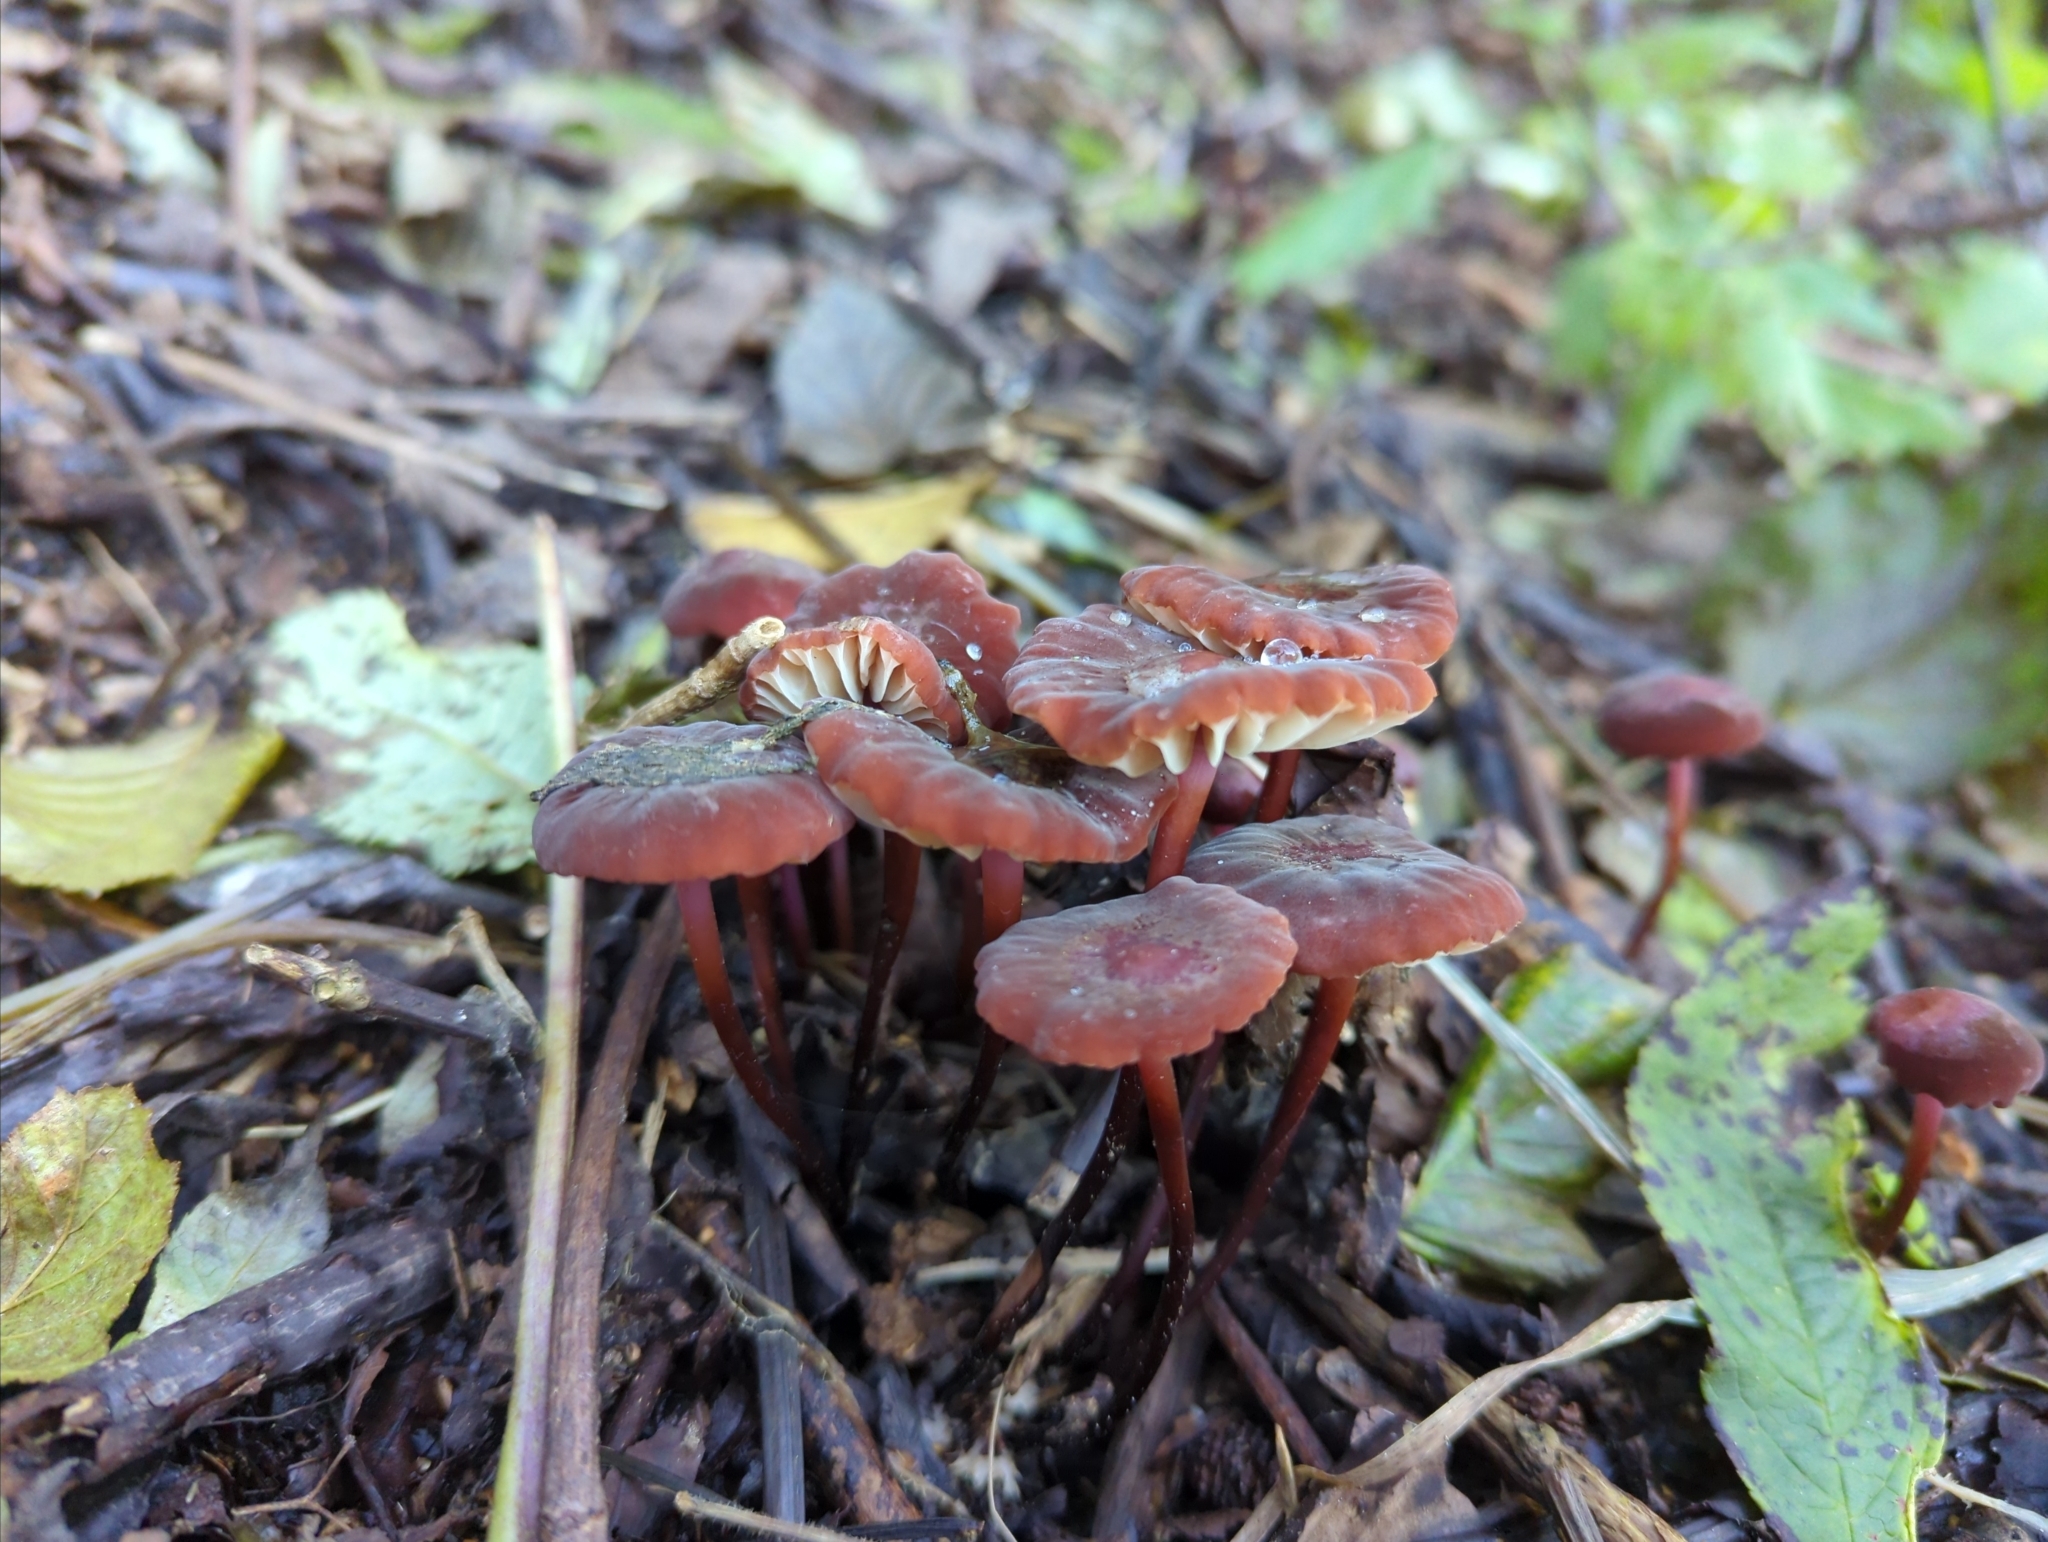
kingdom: Fungi
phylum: Basidiomycota
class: Agaricomycetes
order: Agaricales
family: Marasmiaceae
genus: Marasmius
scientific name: Marasmius plicatulus
